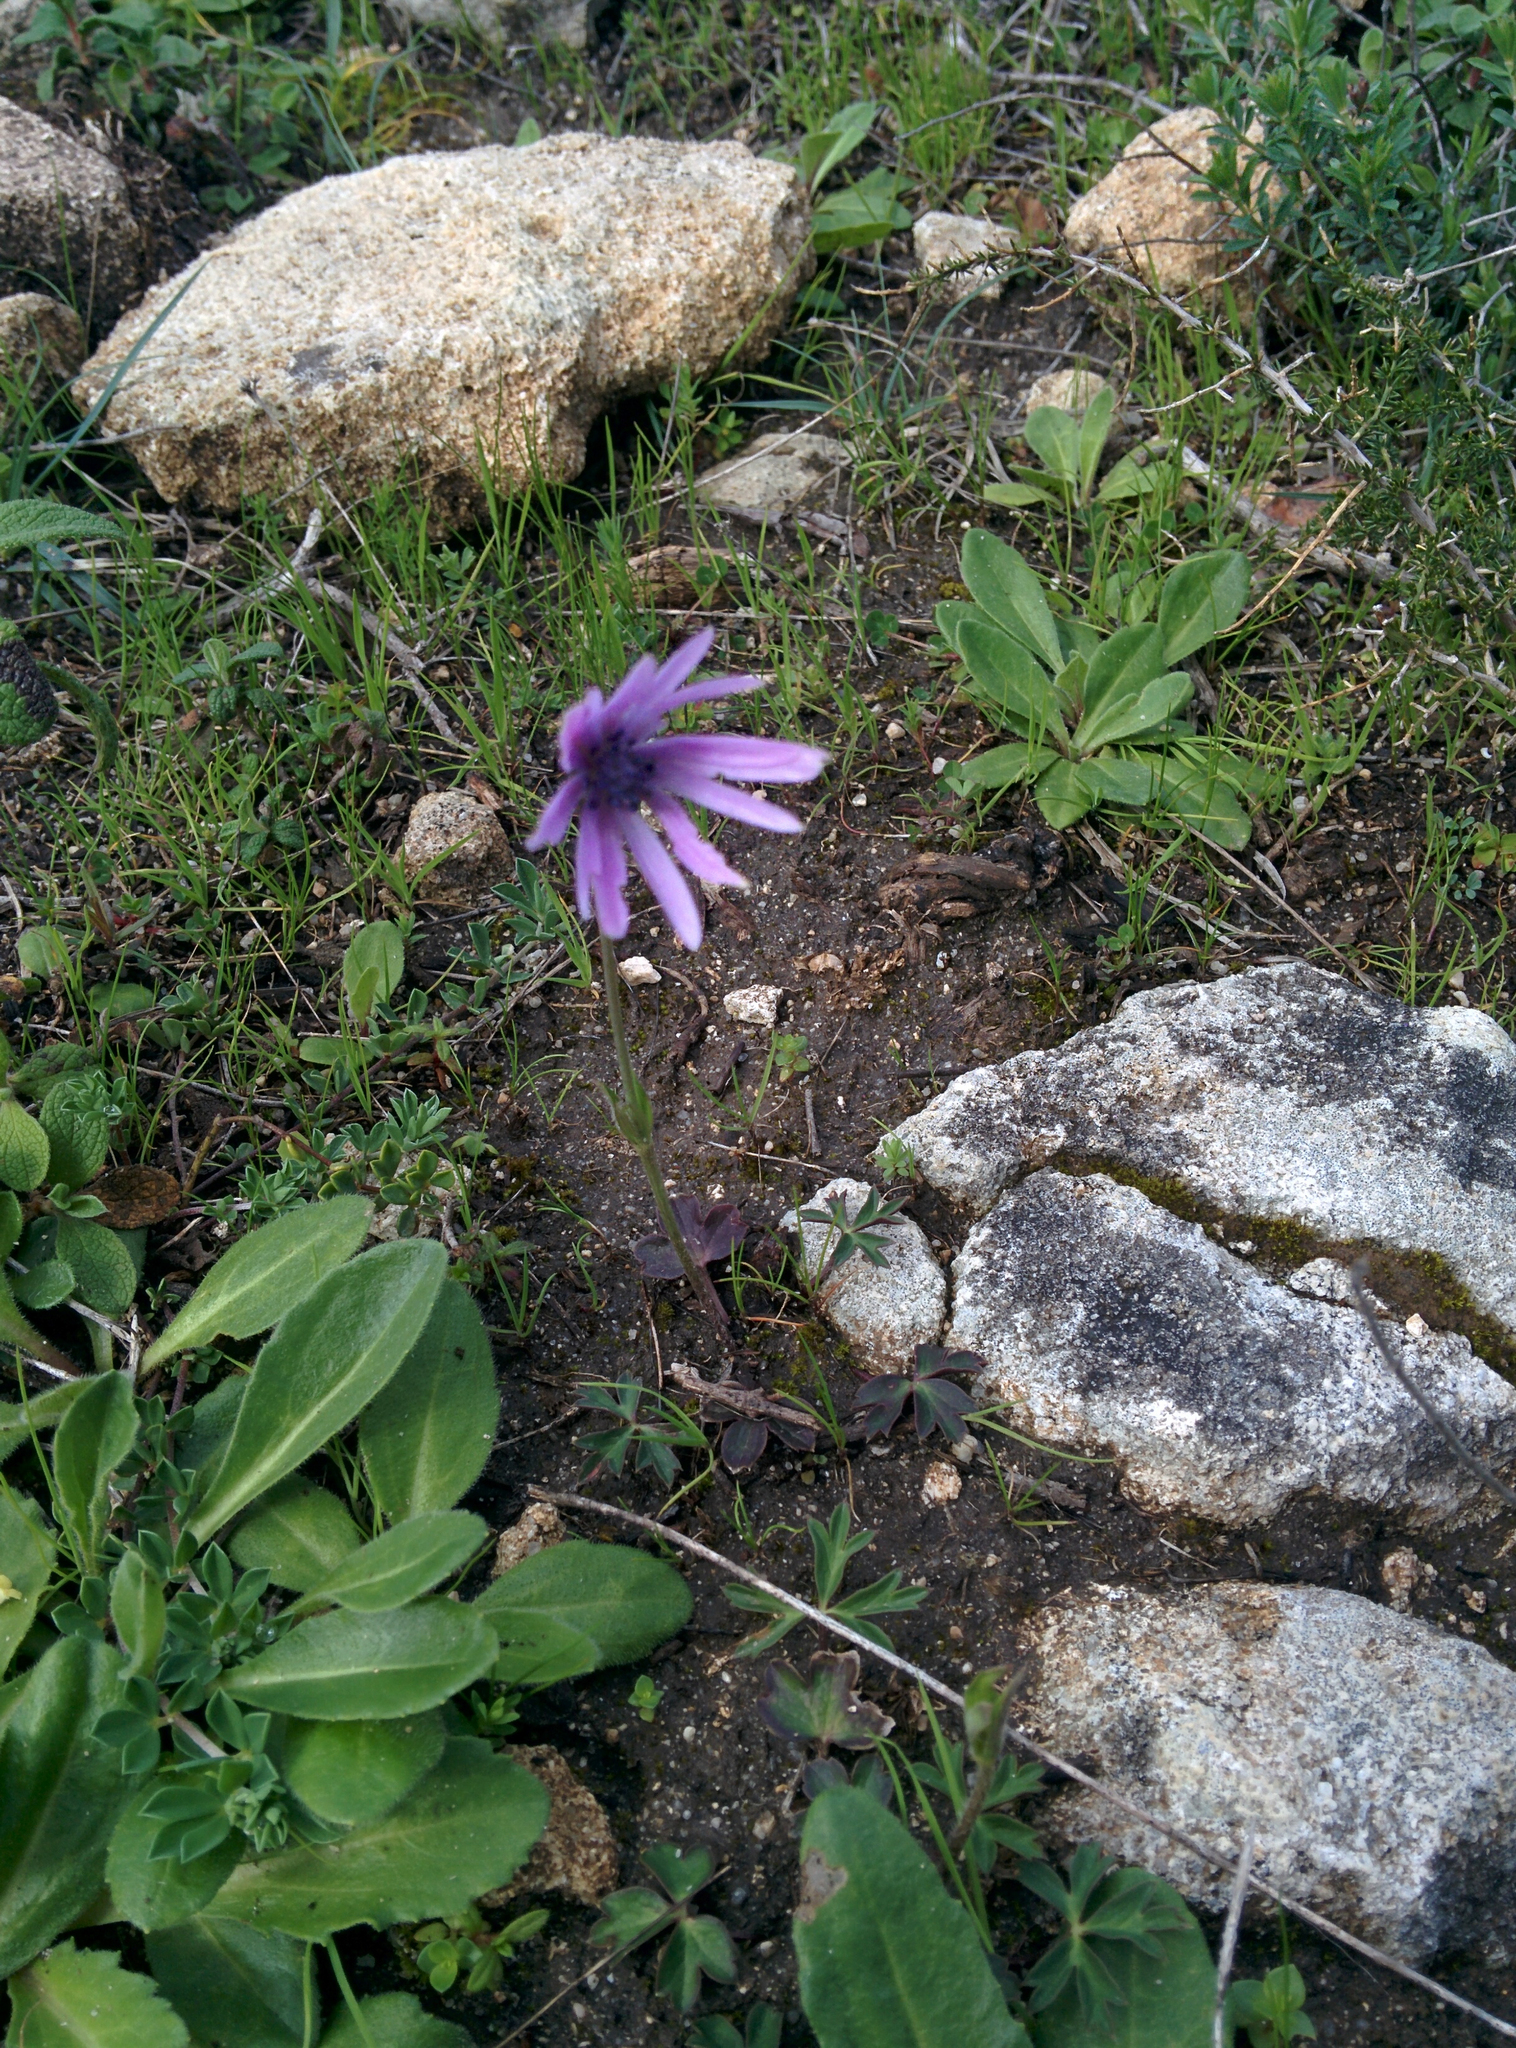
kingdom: Plantae
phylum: Tracheophyta
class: Magnoliopsida
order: Ranunculales
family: Ranunculaceae
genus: Anemone
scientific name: Anemone hortensis
